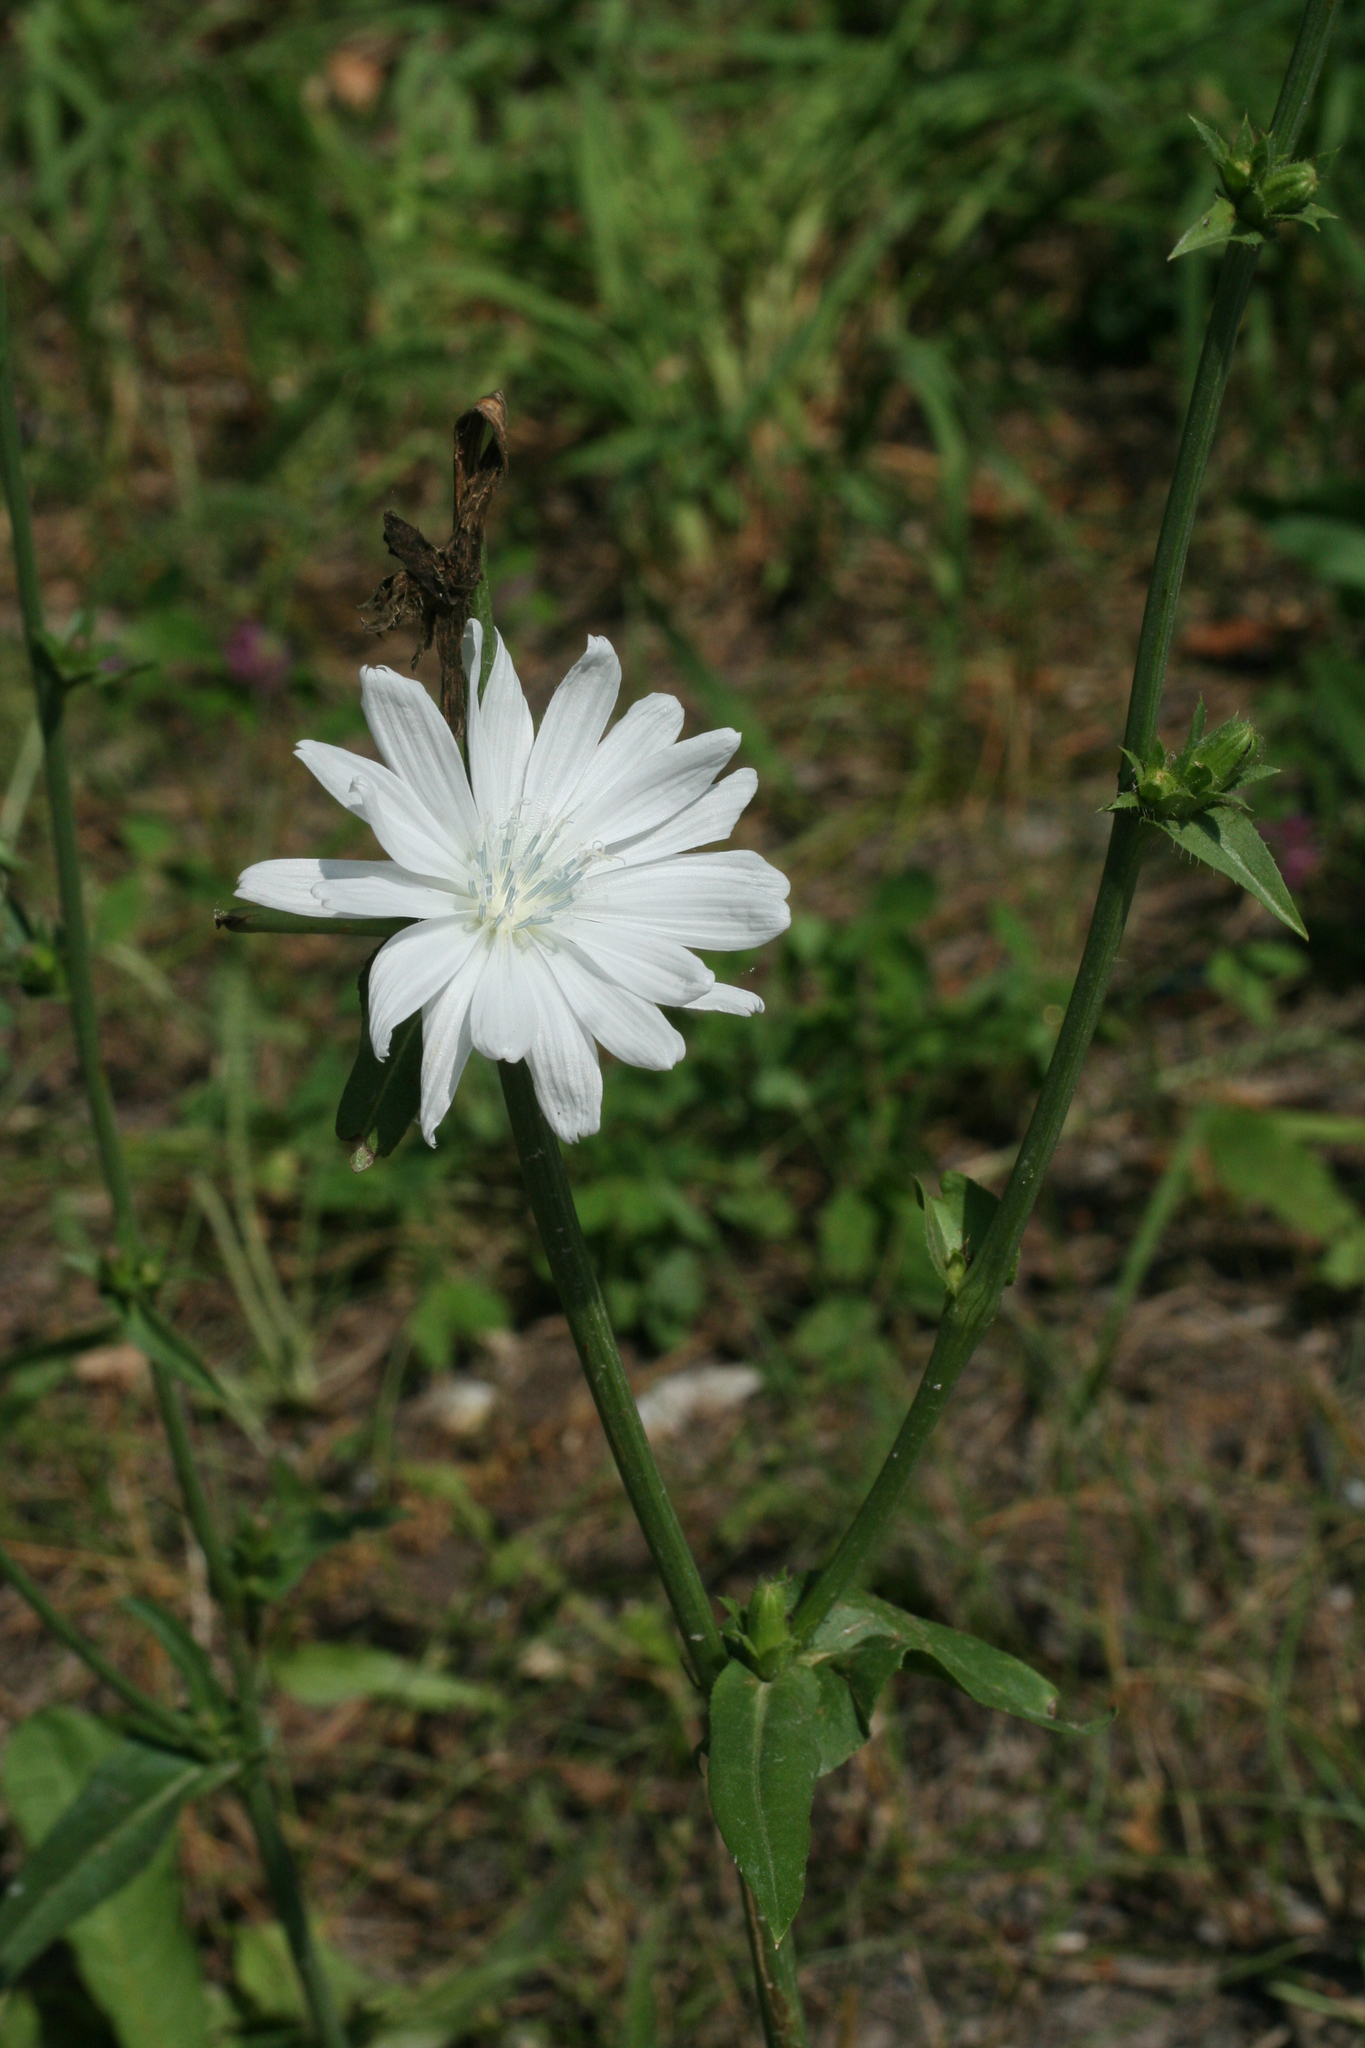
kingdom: Plantae
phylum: Tracheophyta
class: Magnoliopsida
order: Asterales
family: Asteraceae
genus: Cichorium
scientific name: Cichorium intybus
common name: Chicory
